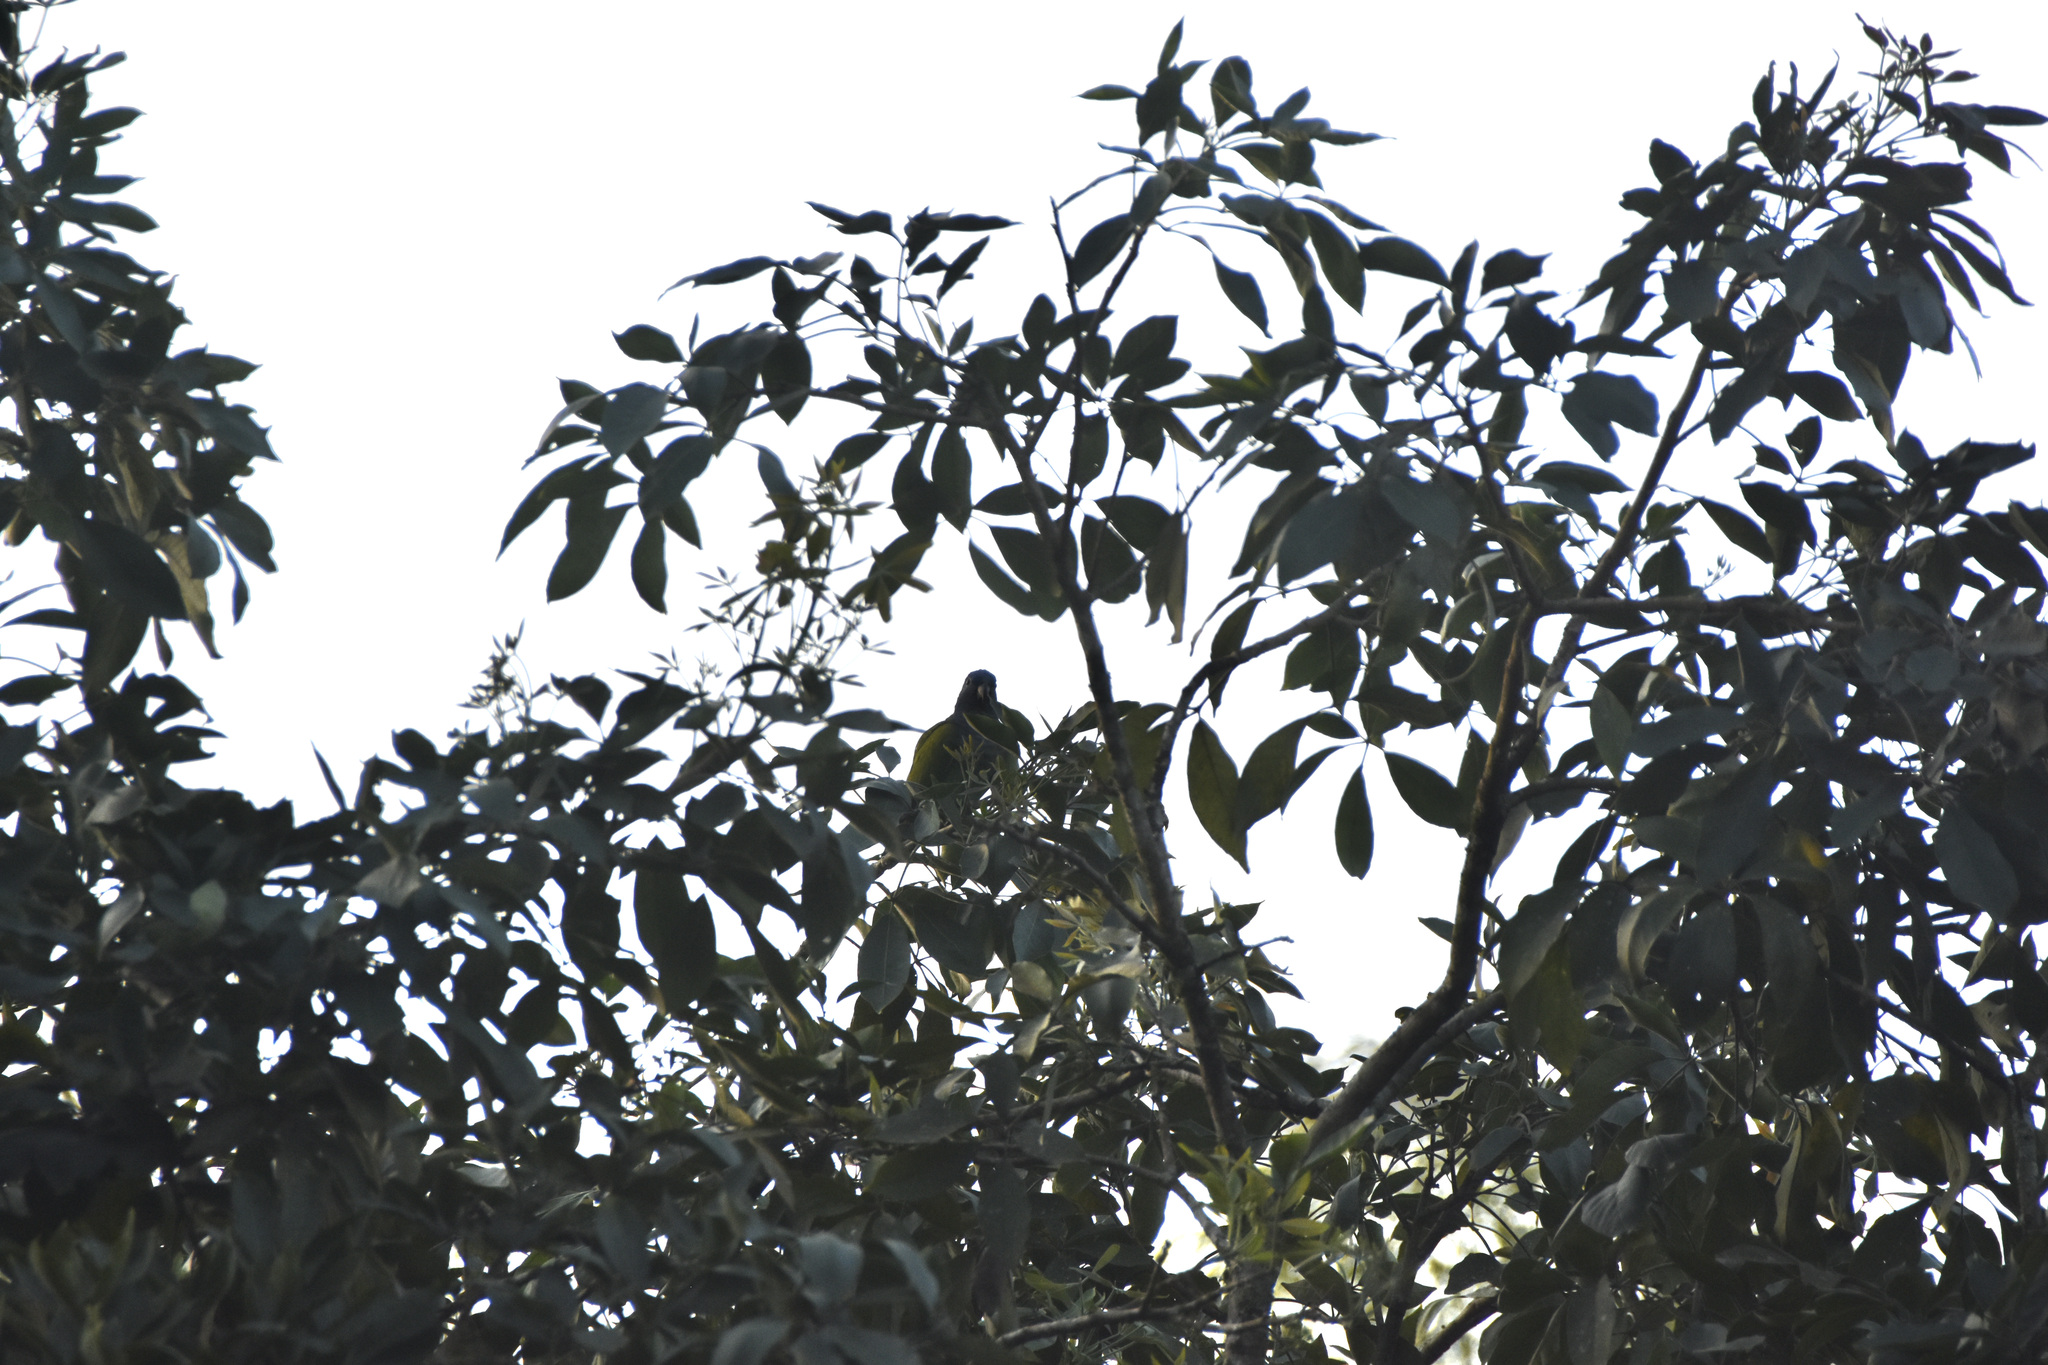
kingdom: Animalia
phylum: Chordata
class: Aves
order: Psittaciformes
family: Psittacidae
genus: Pionus
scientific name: Pionus menstruus
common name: Blue-headed parrot
